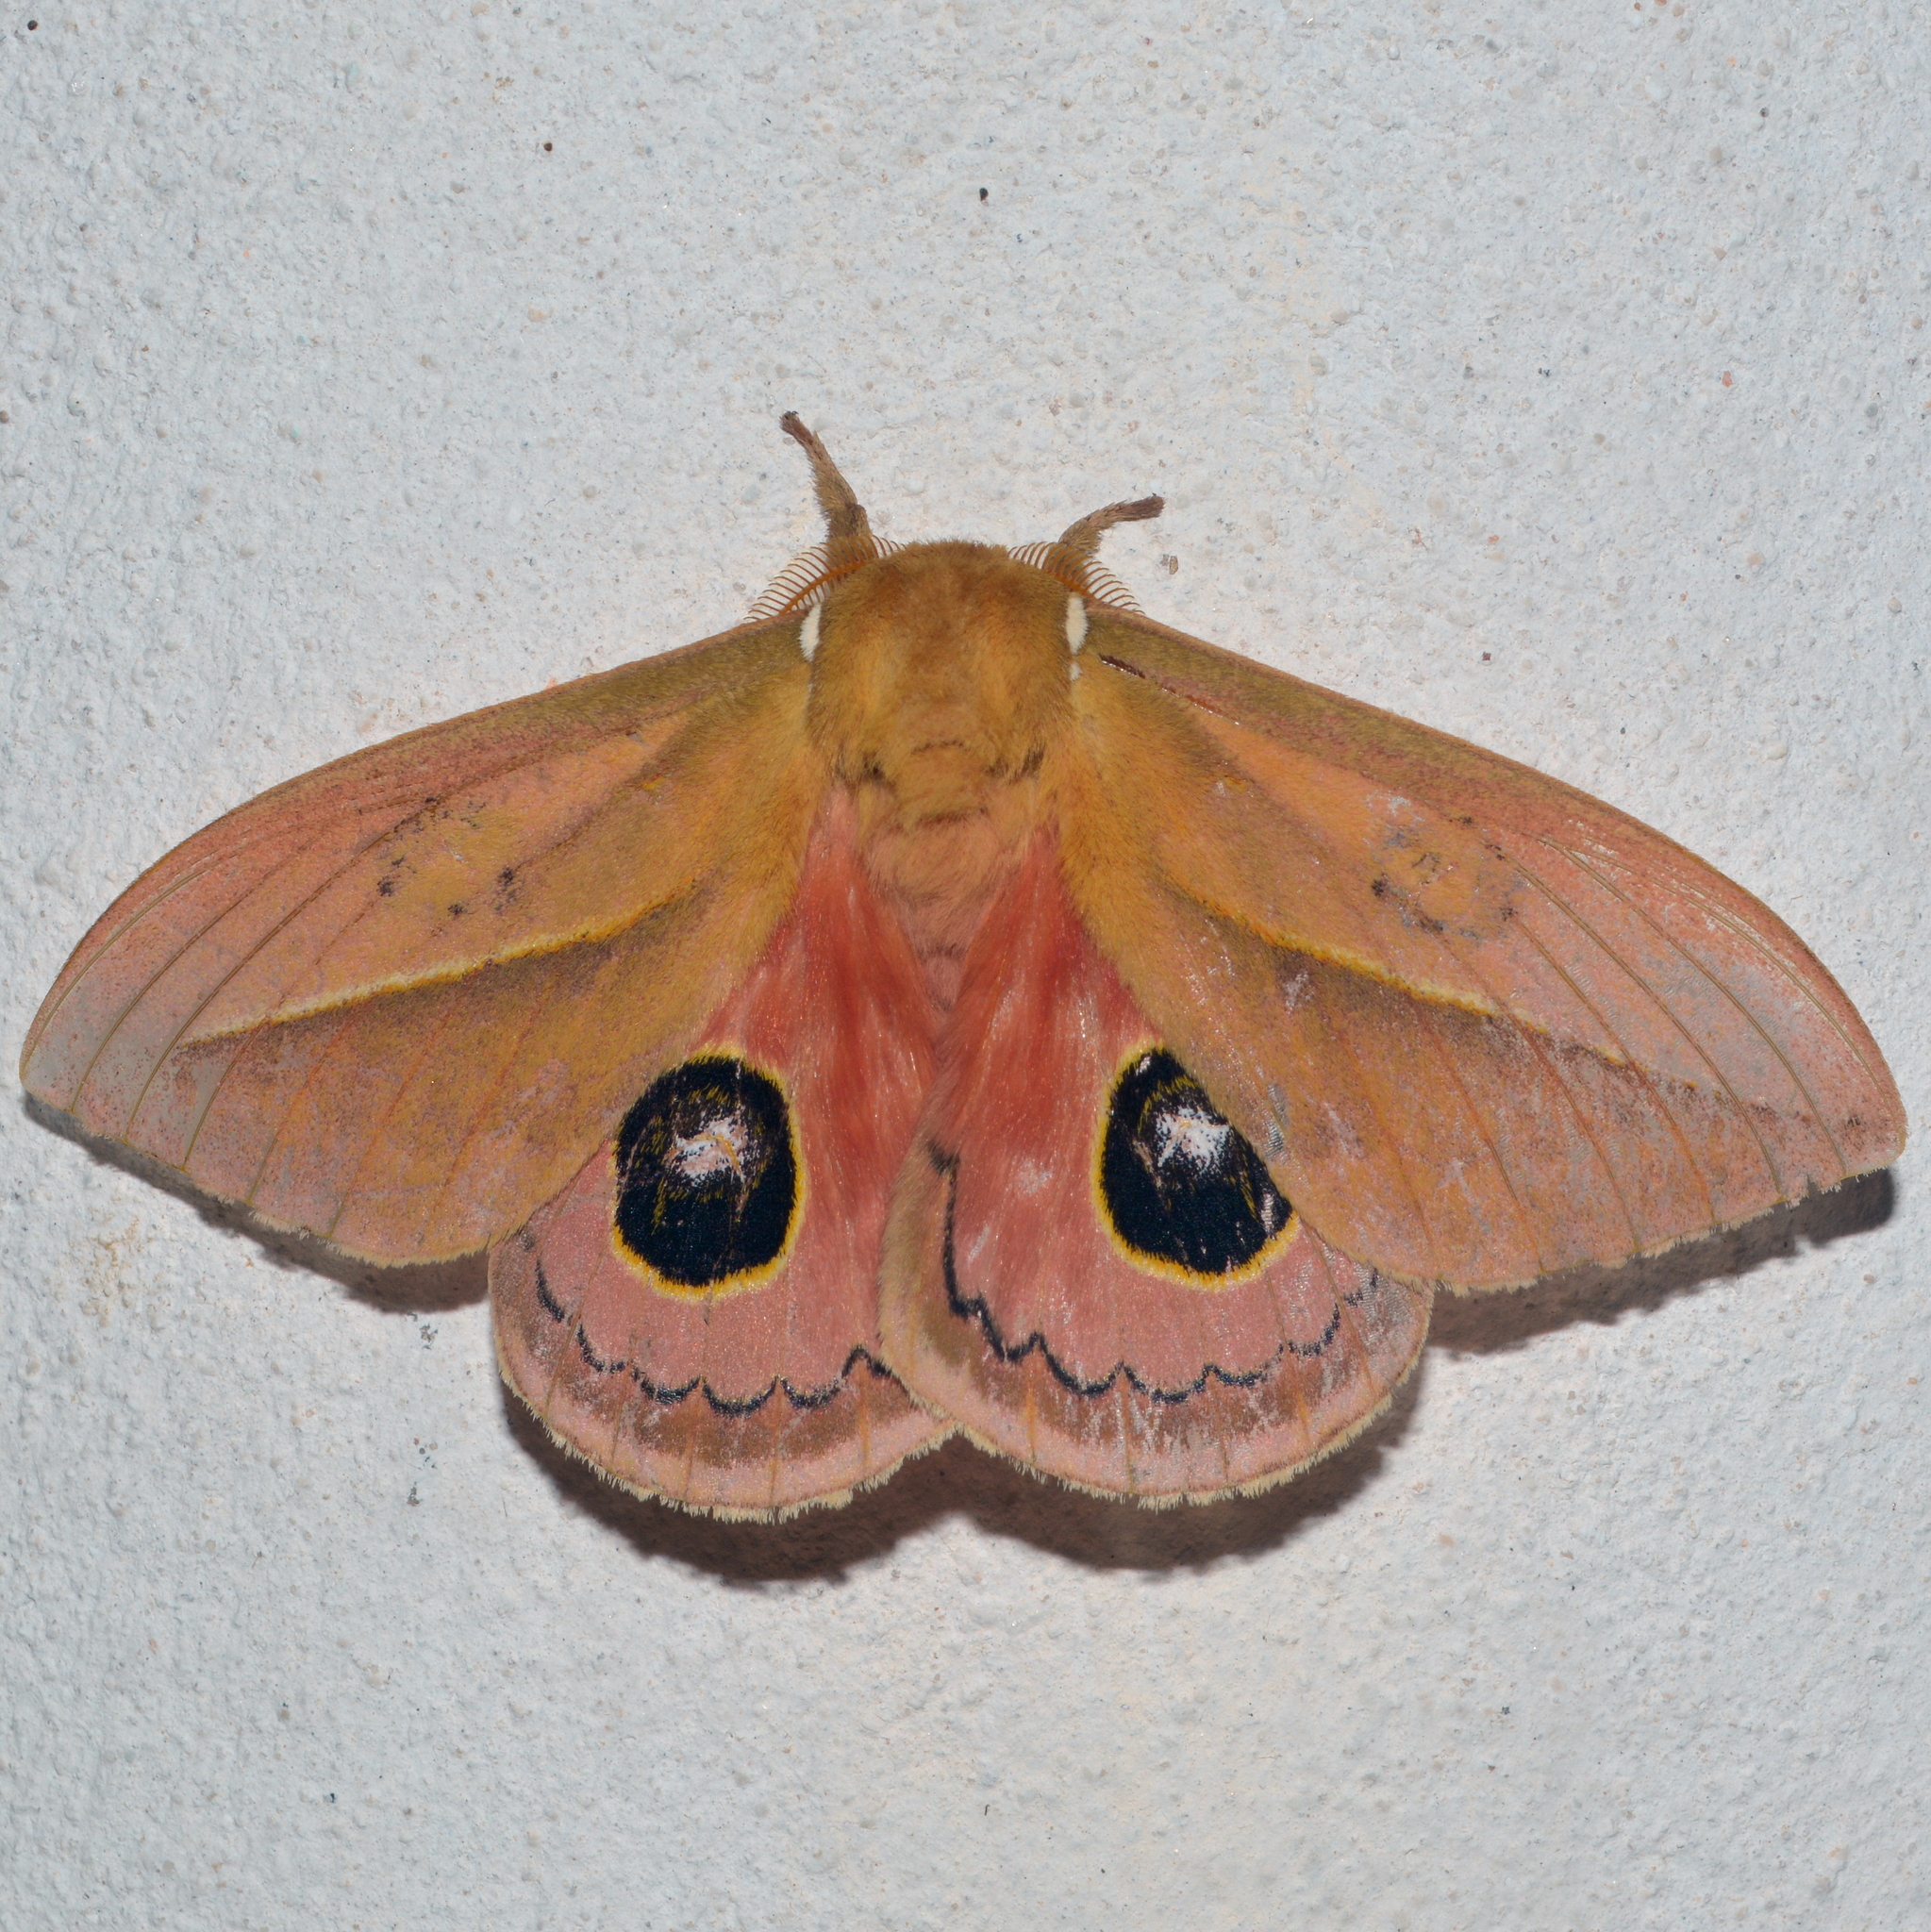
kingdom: Animalia
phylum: Arthropoda
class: Insecta
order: Lepidoptera
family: Saturniidae
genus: Pseudautomeris
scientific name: Pseudautomeris grammivora
